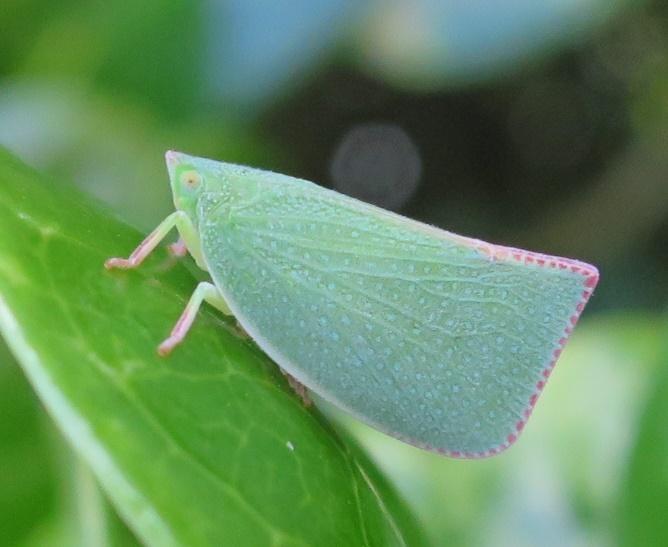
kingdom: Animalia
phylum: Arthropoda
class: Insecta
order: Hemiptera
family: Flatidae
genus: Siphanta
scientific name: Siphanta acuta
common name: Torpedo bug
